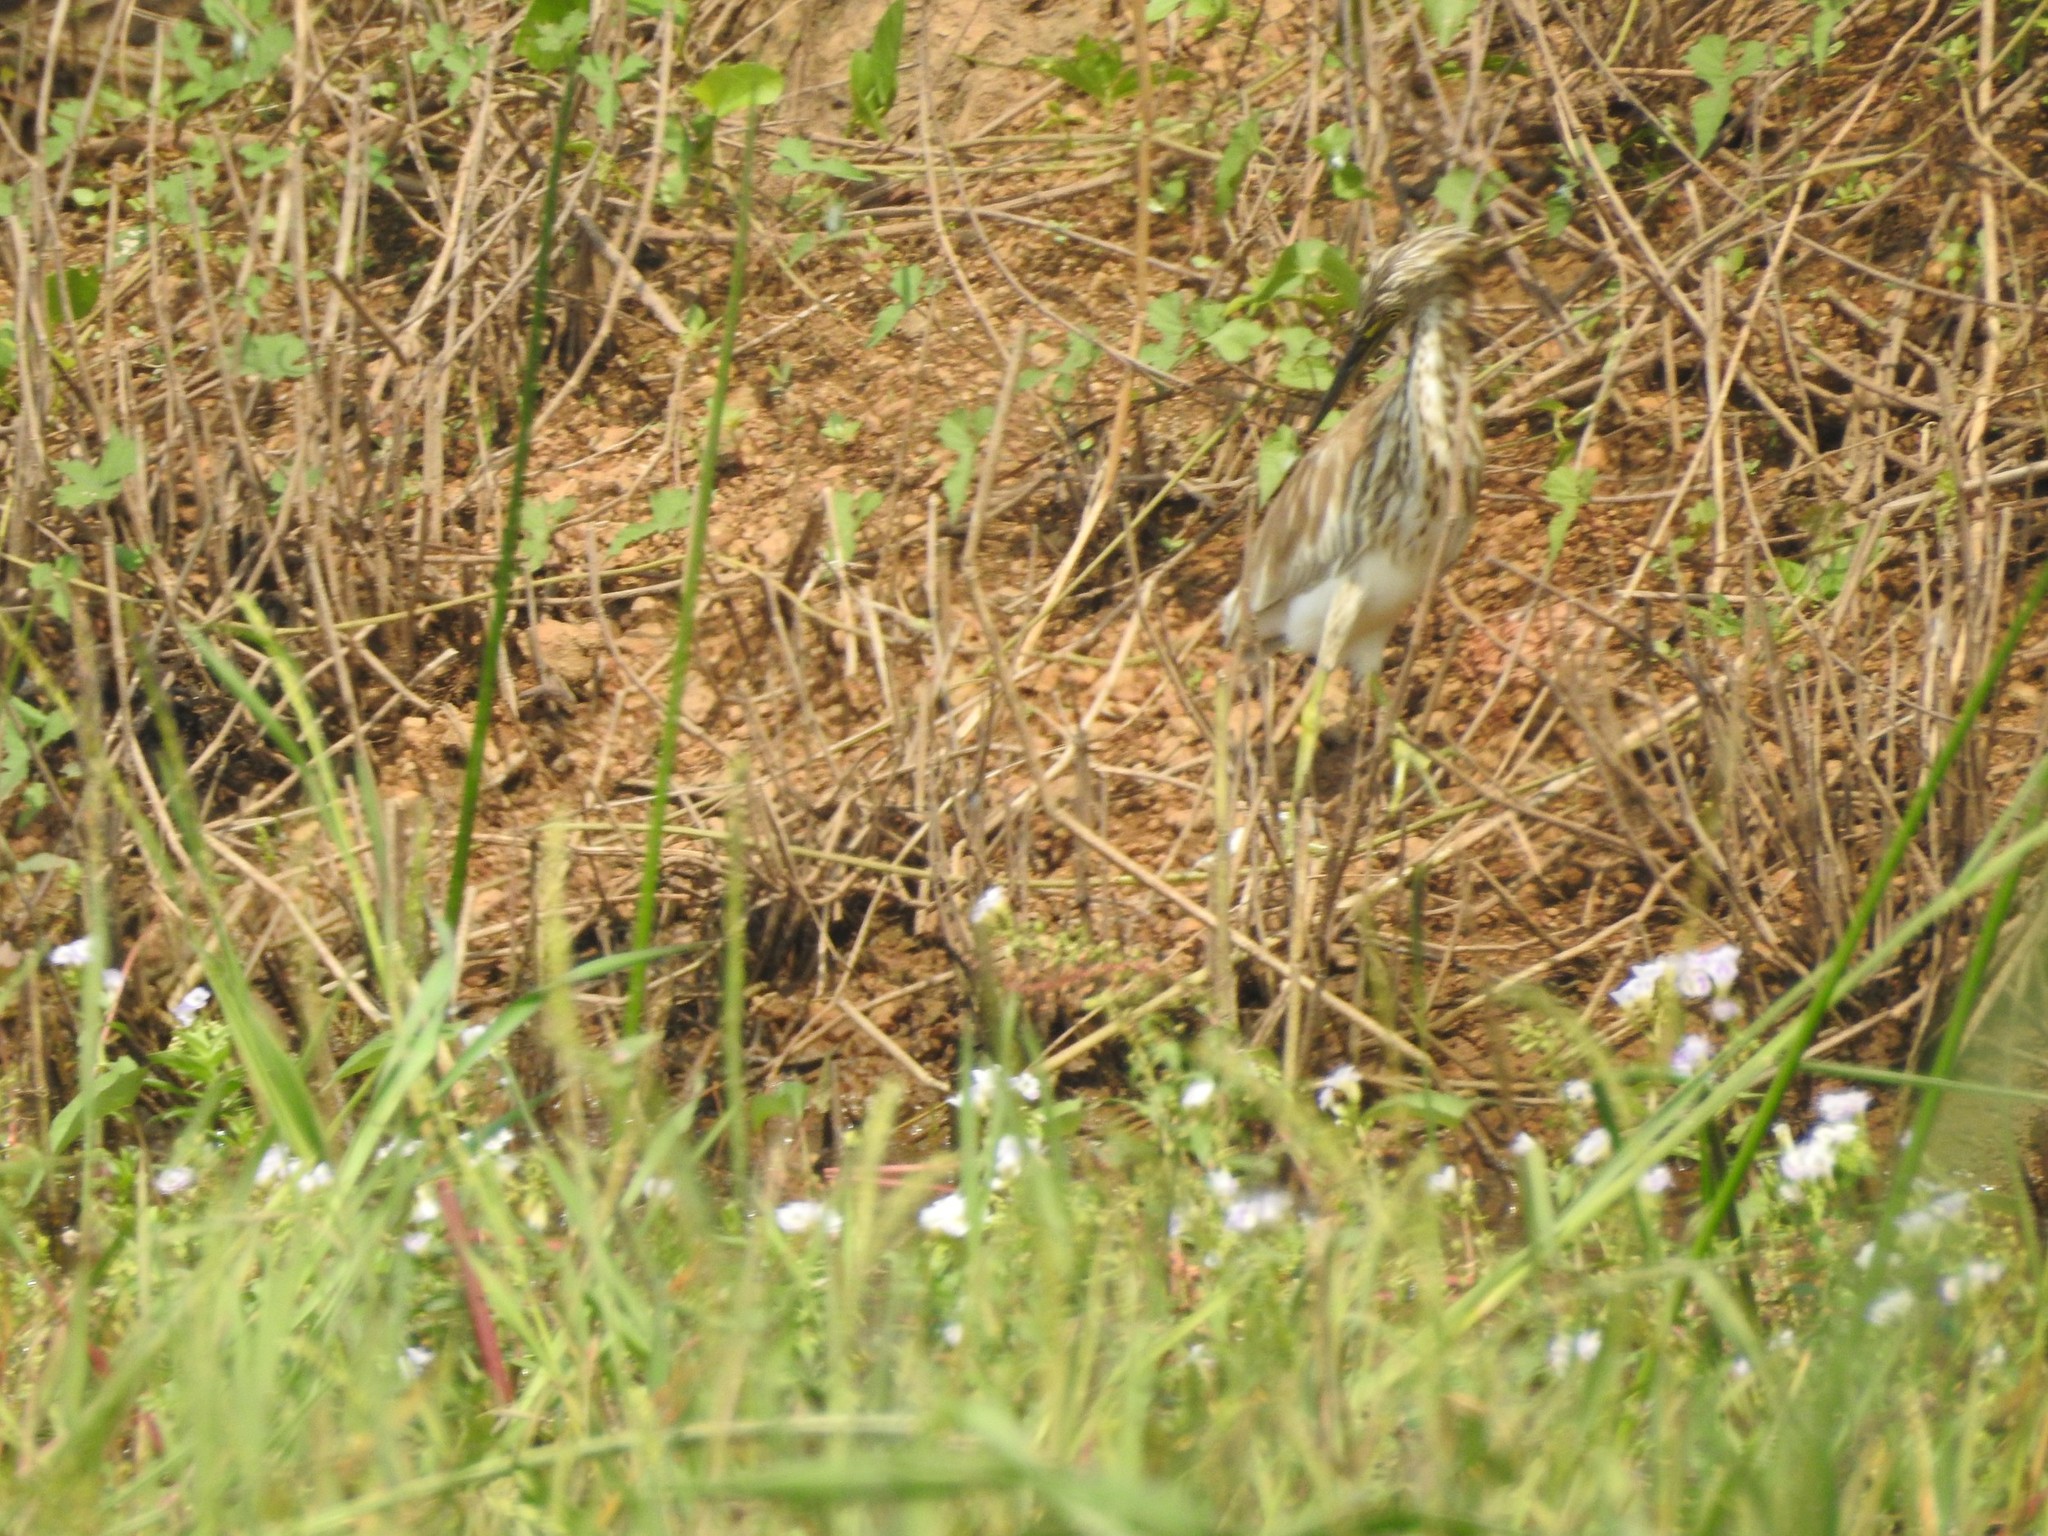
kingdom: Animalia
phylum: Chordata
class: Aves
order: Pelecaniformes
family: Ardeidae
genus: Ardeola
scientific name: Ardeola grayii
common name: Indian pond heron
